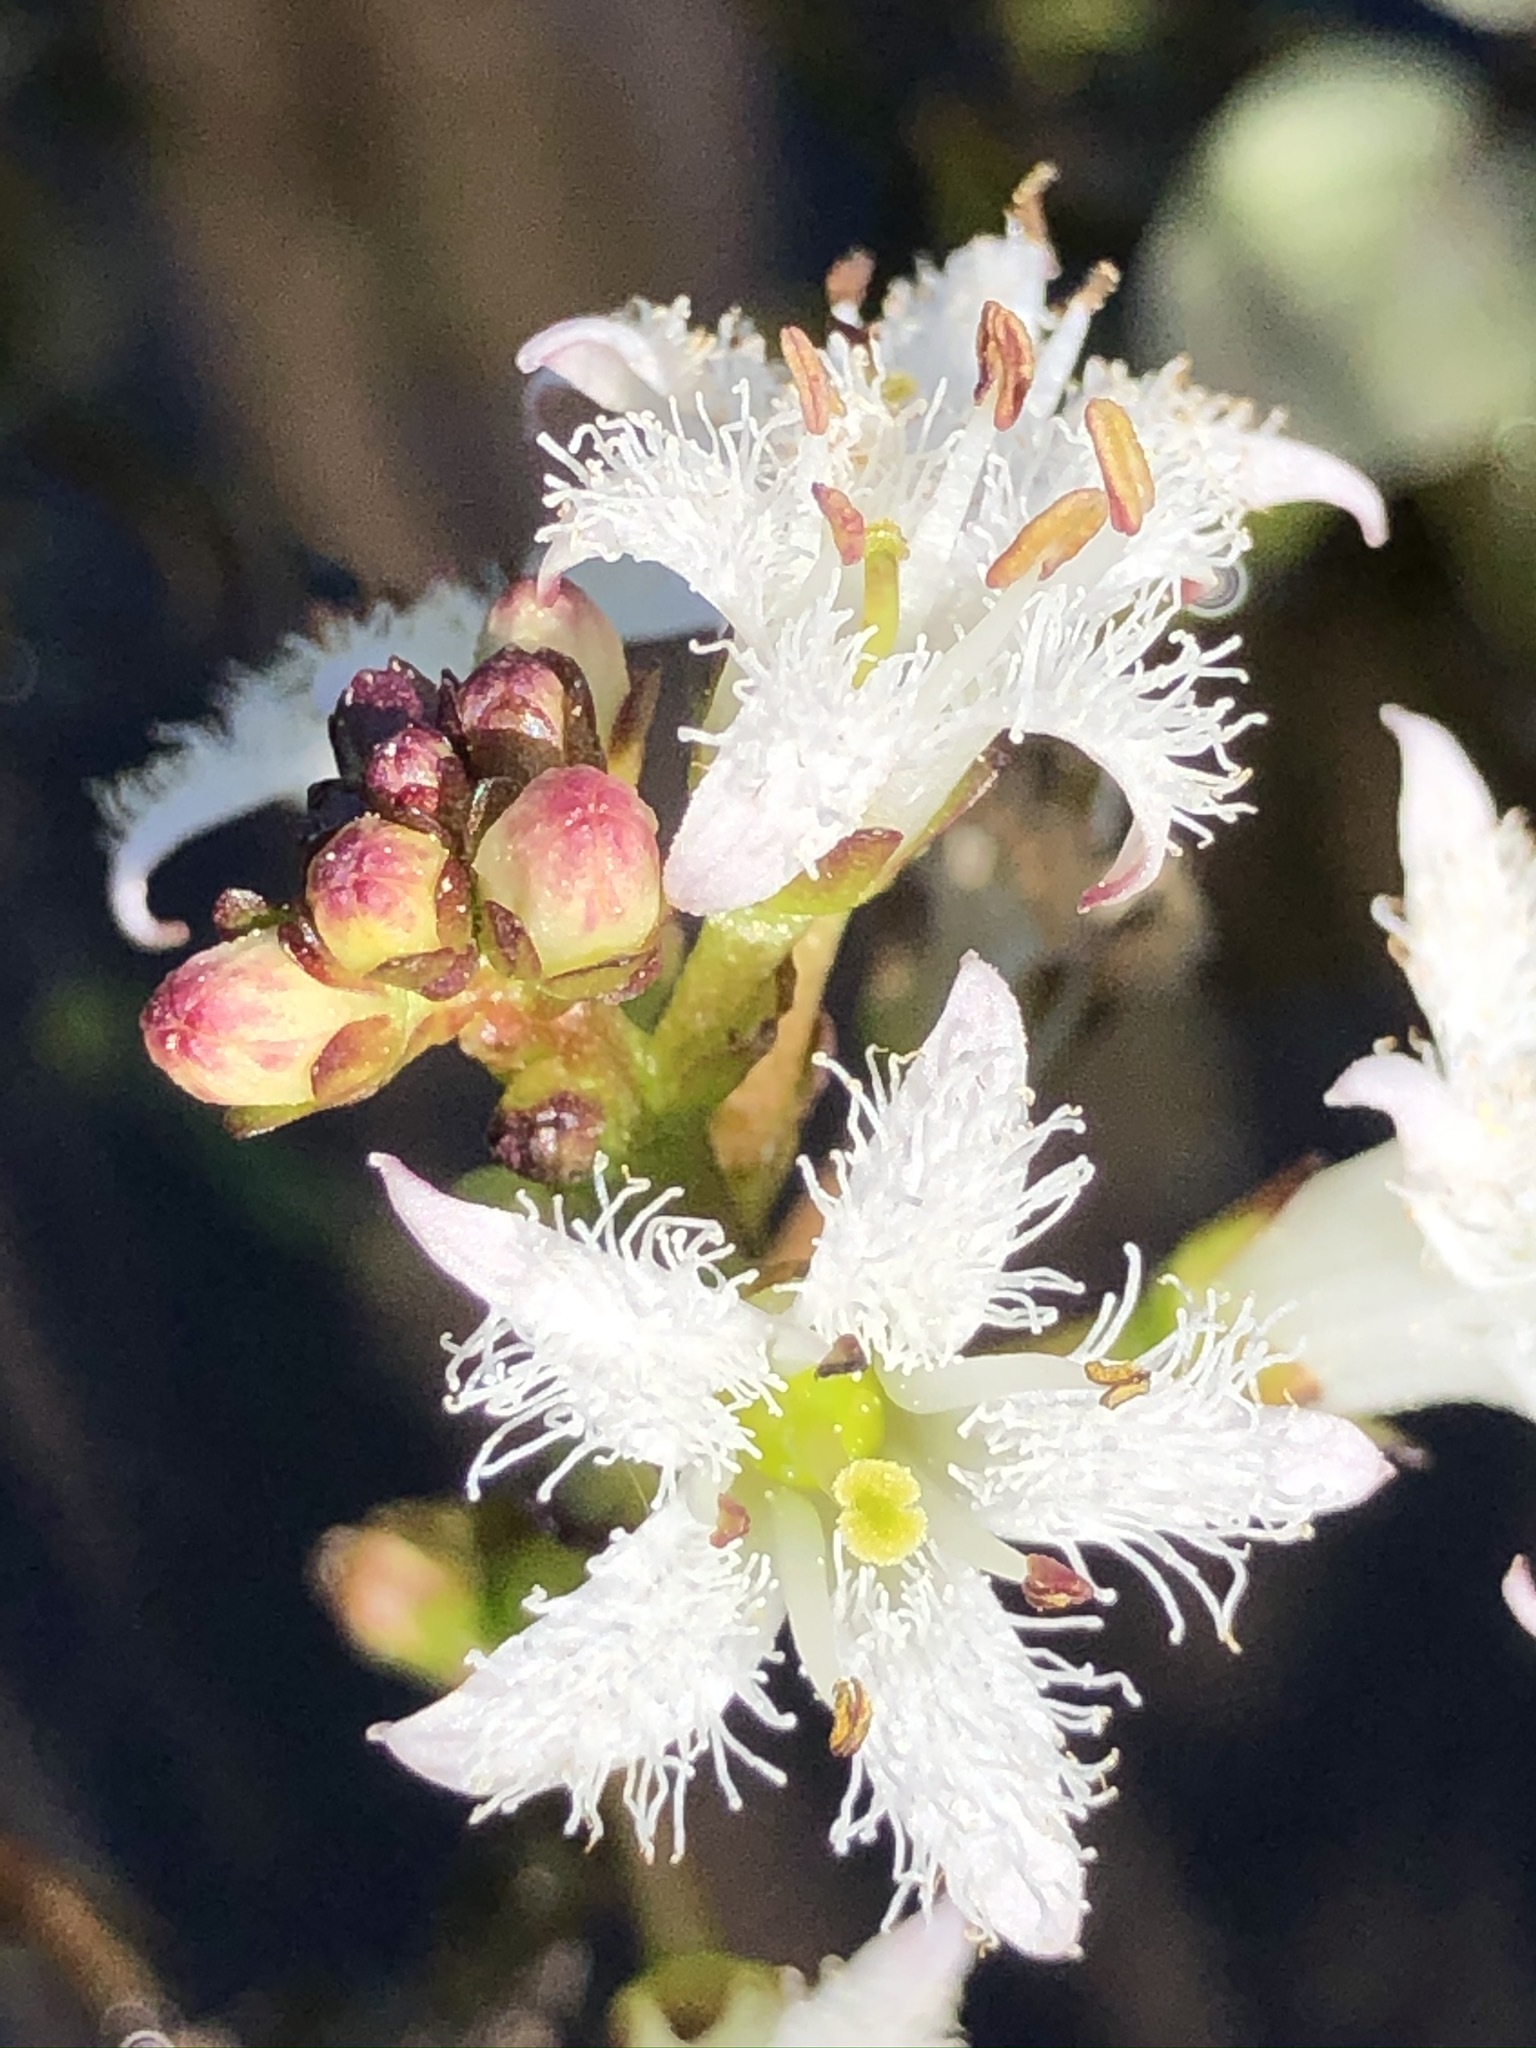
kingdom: Plantae
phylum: Tracheophyta
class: Magnoliopsida
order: Asterales
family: Menyanthaceae
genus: Menyanthes
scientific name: Menyanthes trifoliata
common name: Bogbean
